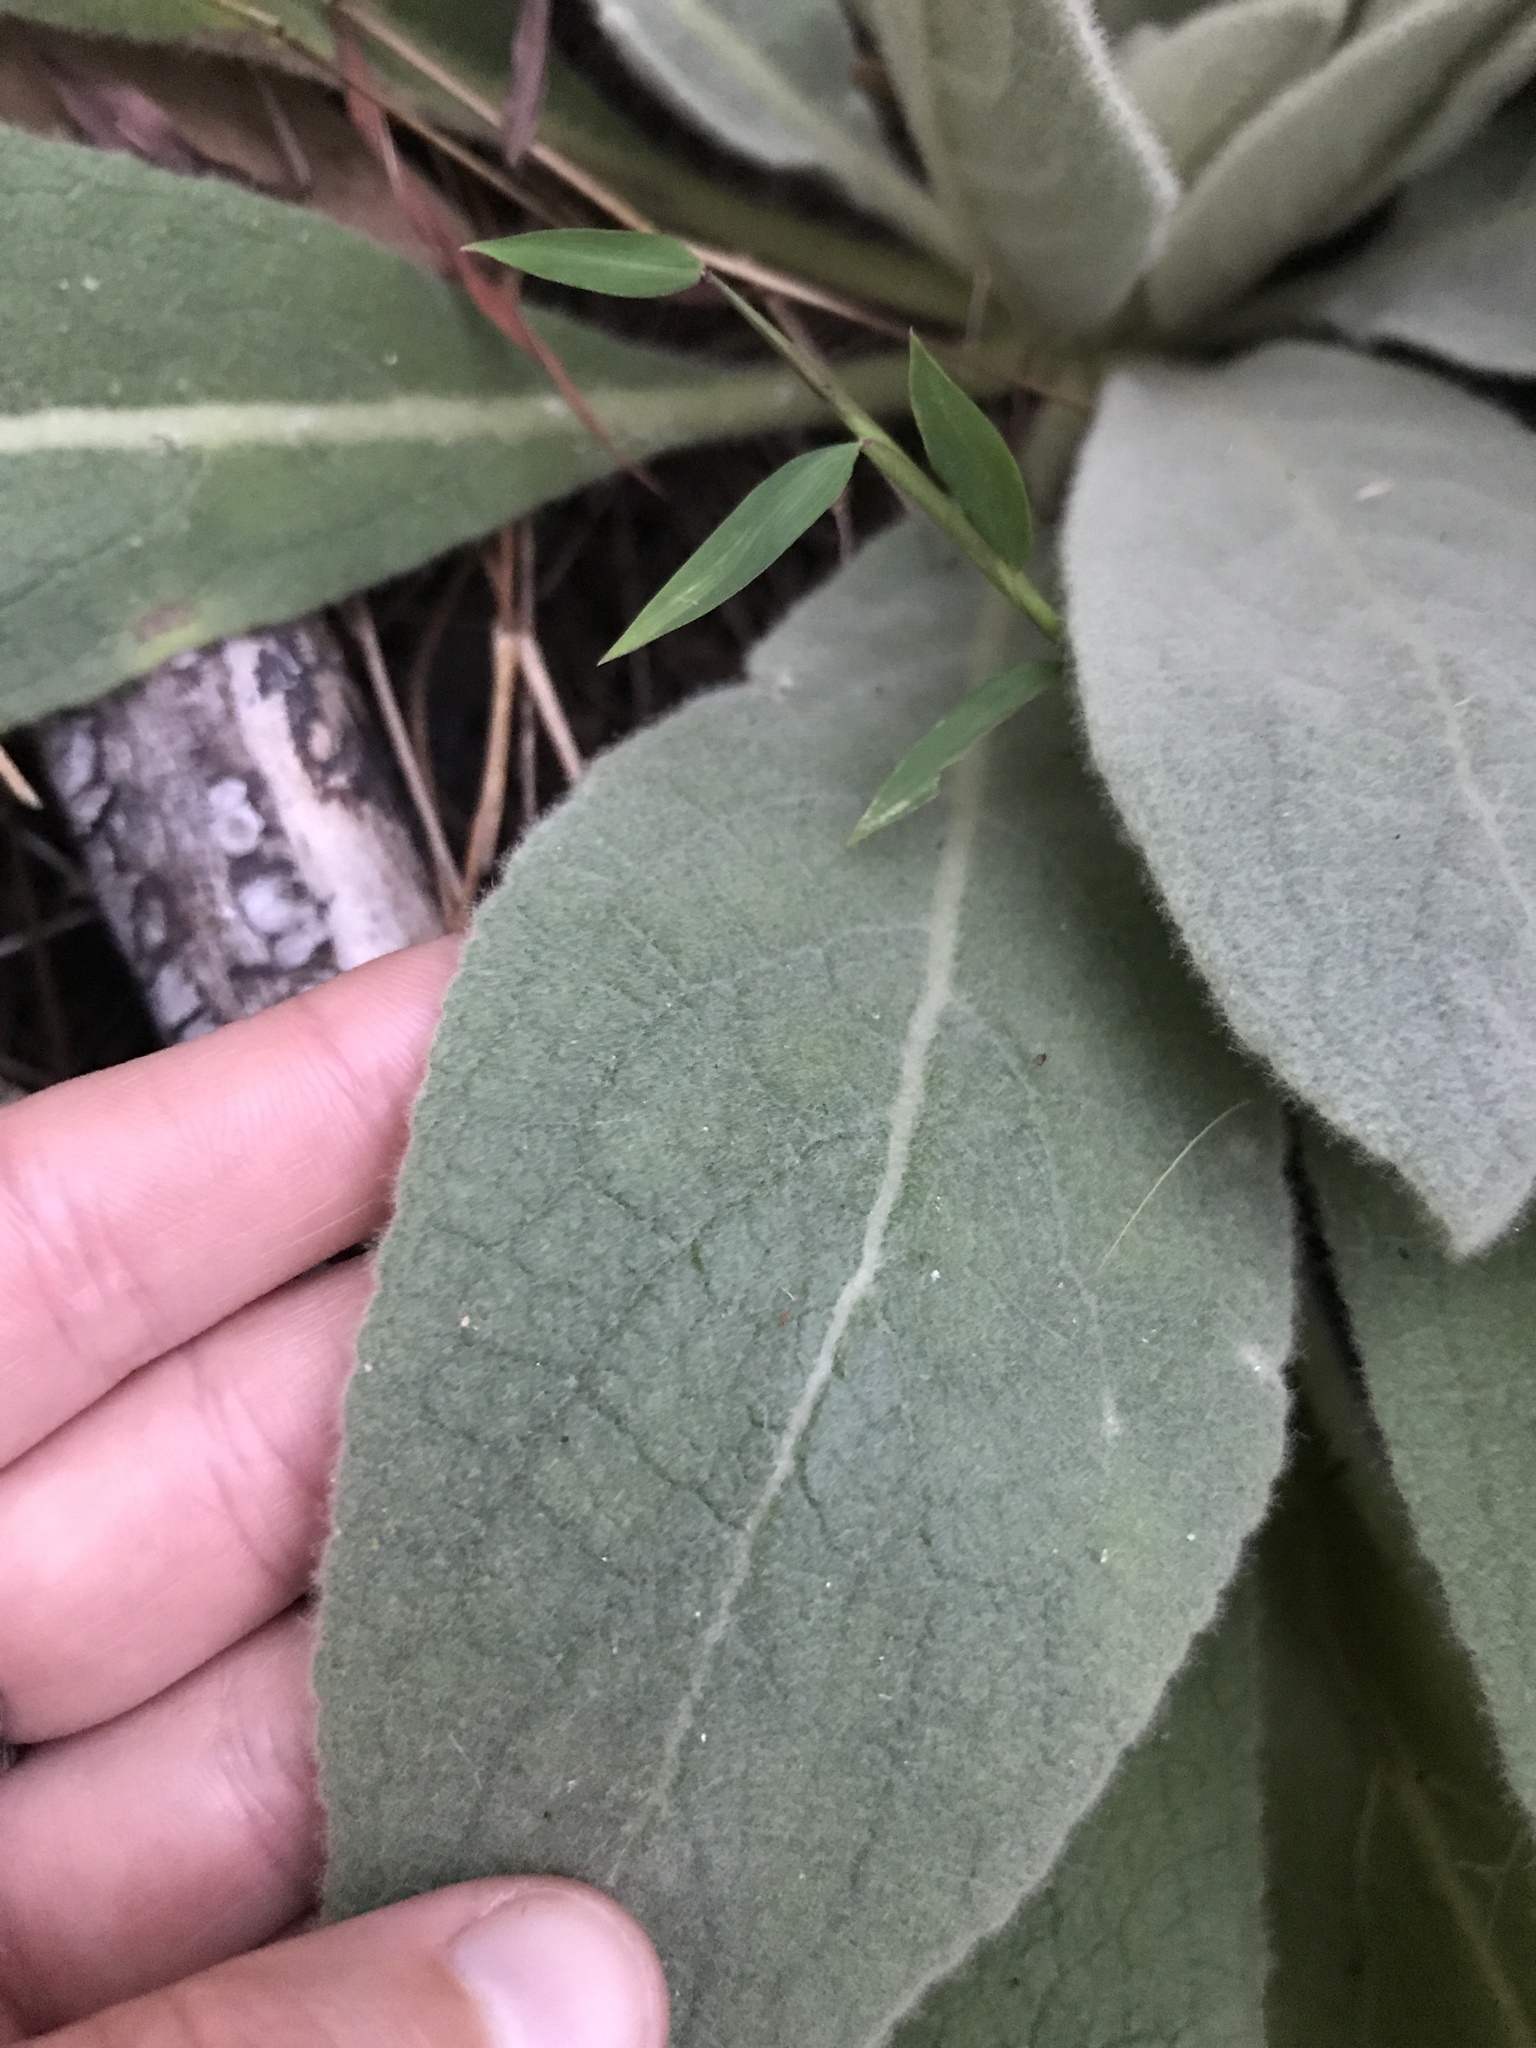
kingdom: Plantae
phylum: Tracheophyta
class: Magnoliopsida
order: Lamiales
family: Scrophulariaceae
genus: Verbascum
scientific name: Verbascum thapsus
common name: Common mullein
